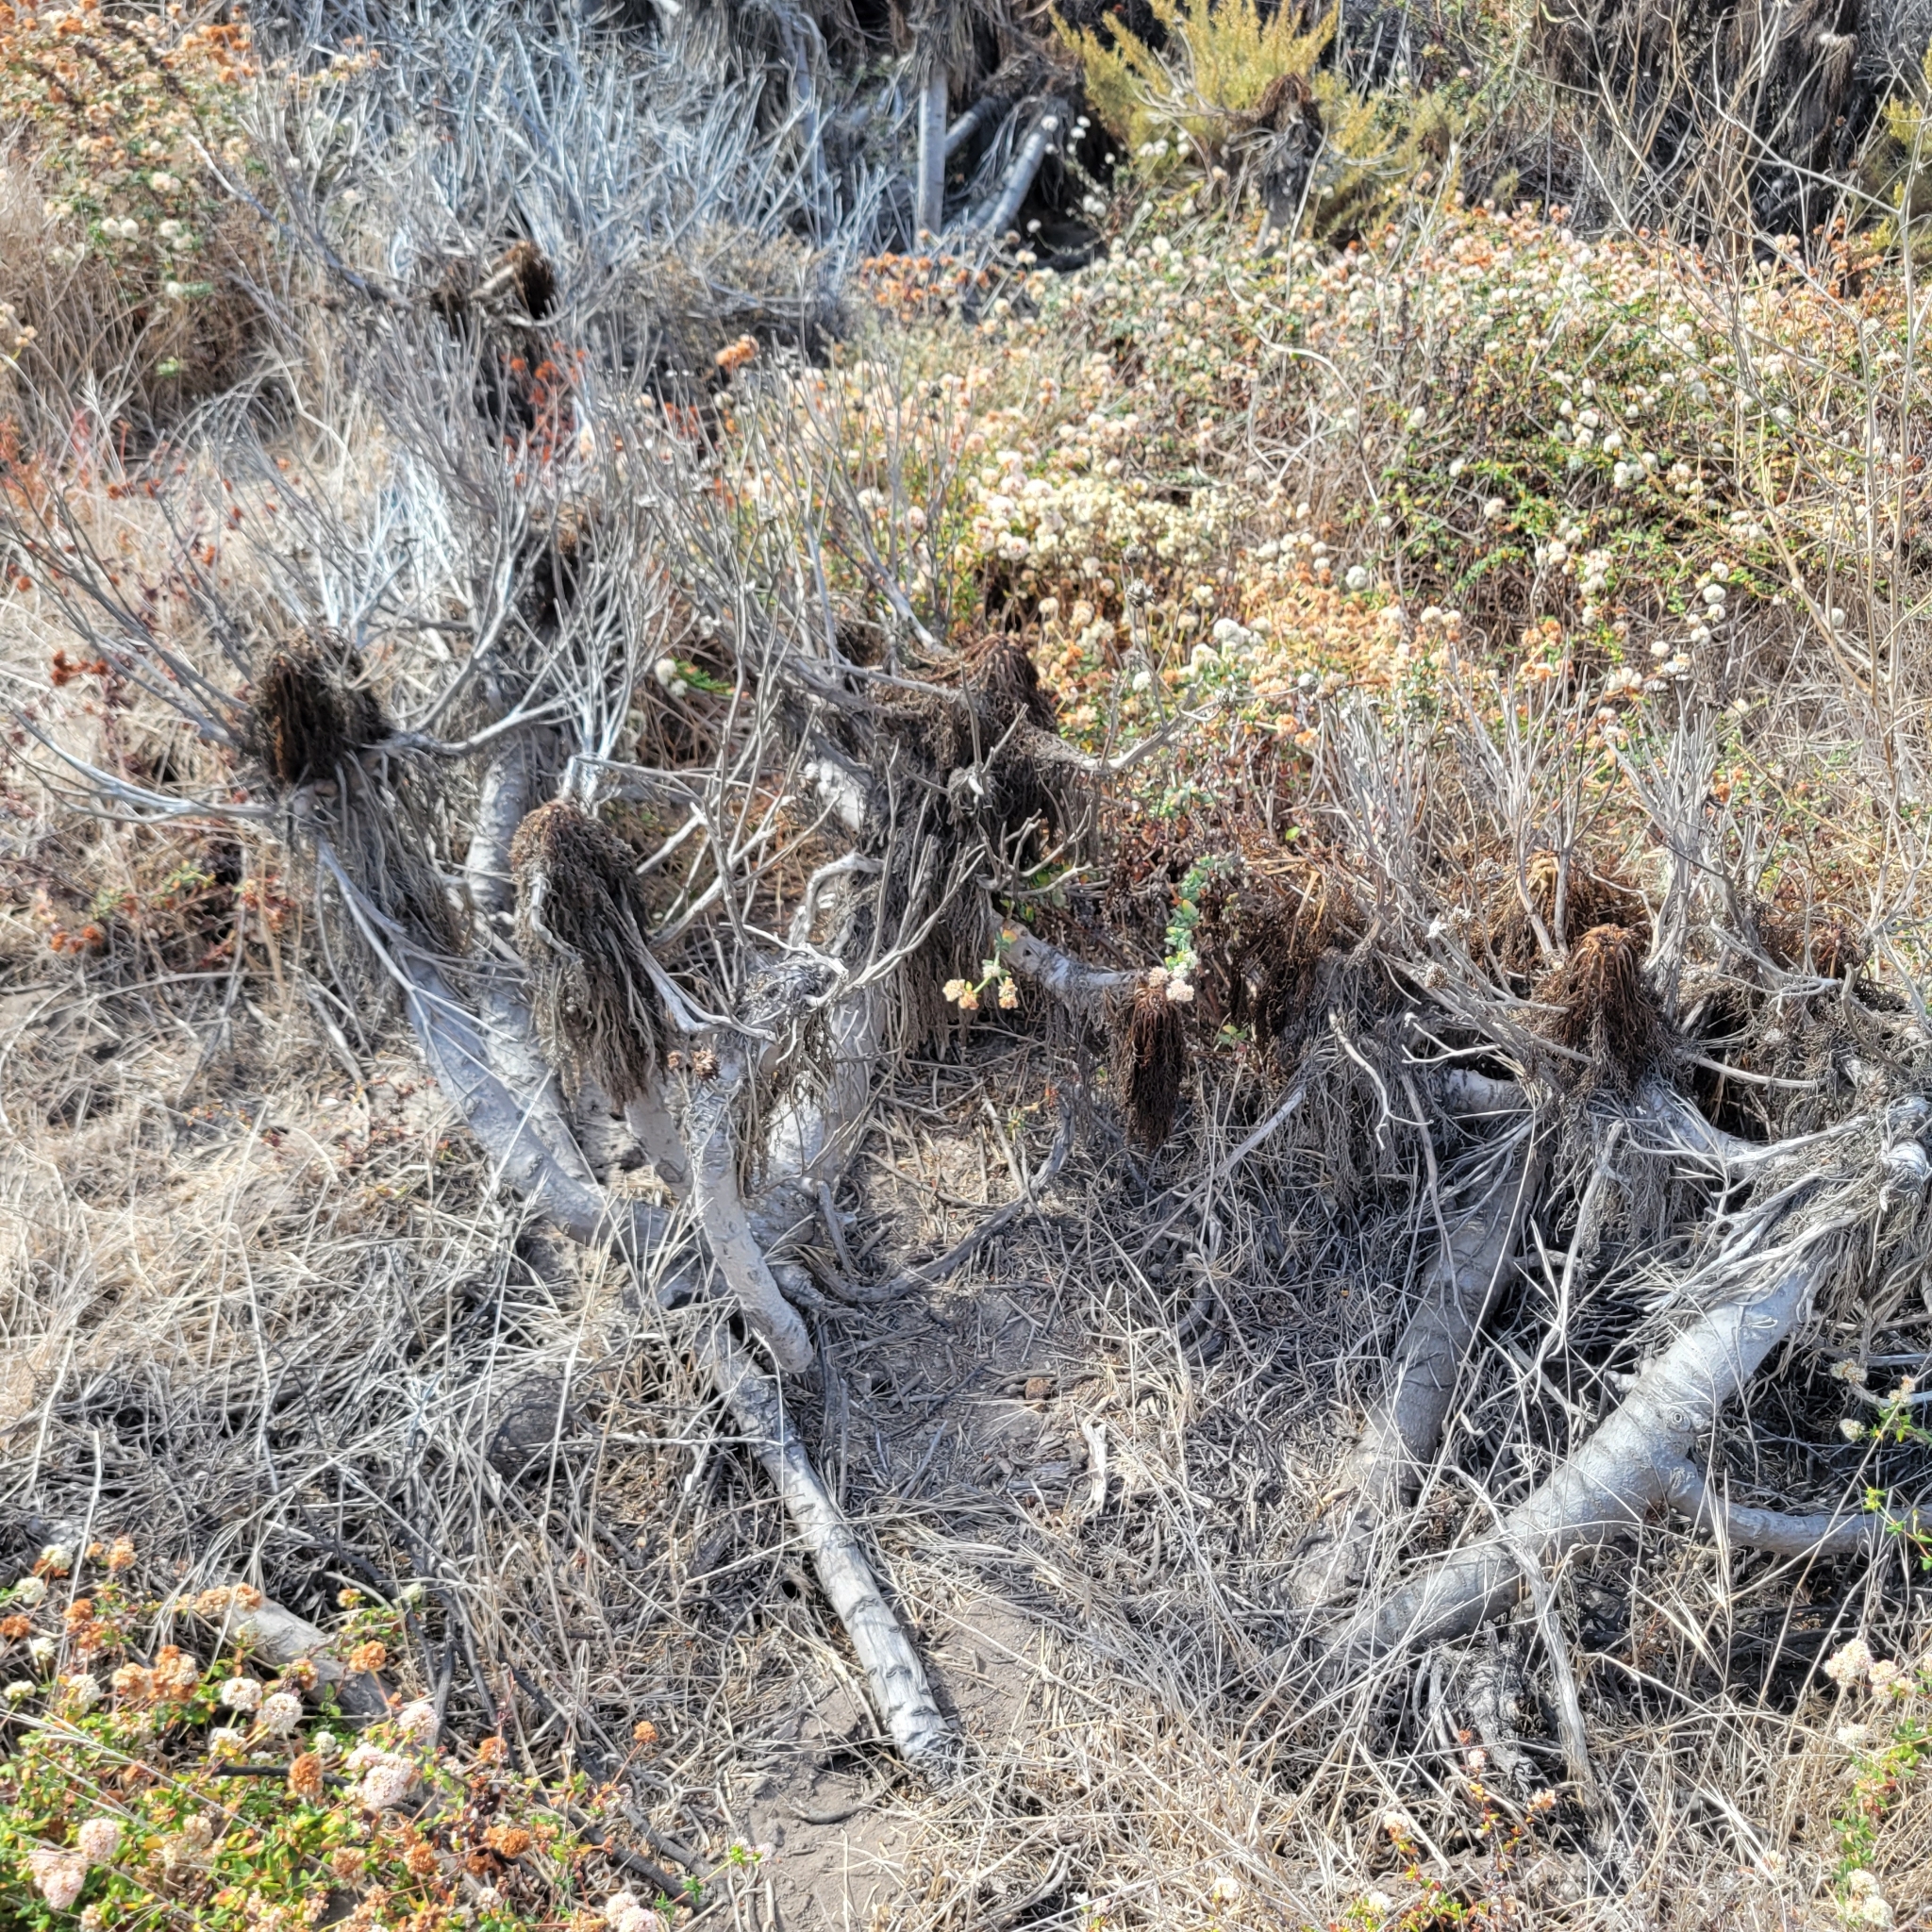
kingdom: Plantae
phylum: Tracheophyta
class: Magnoliopsida
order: Asterales
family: Asteraceae
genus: Coreopsis
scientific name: Coreopsis gigantea
